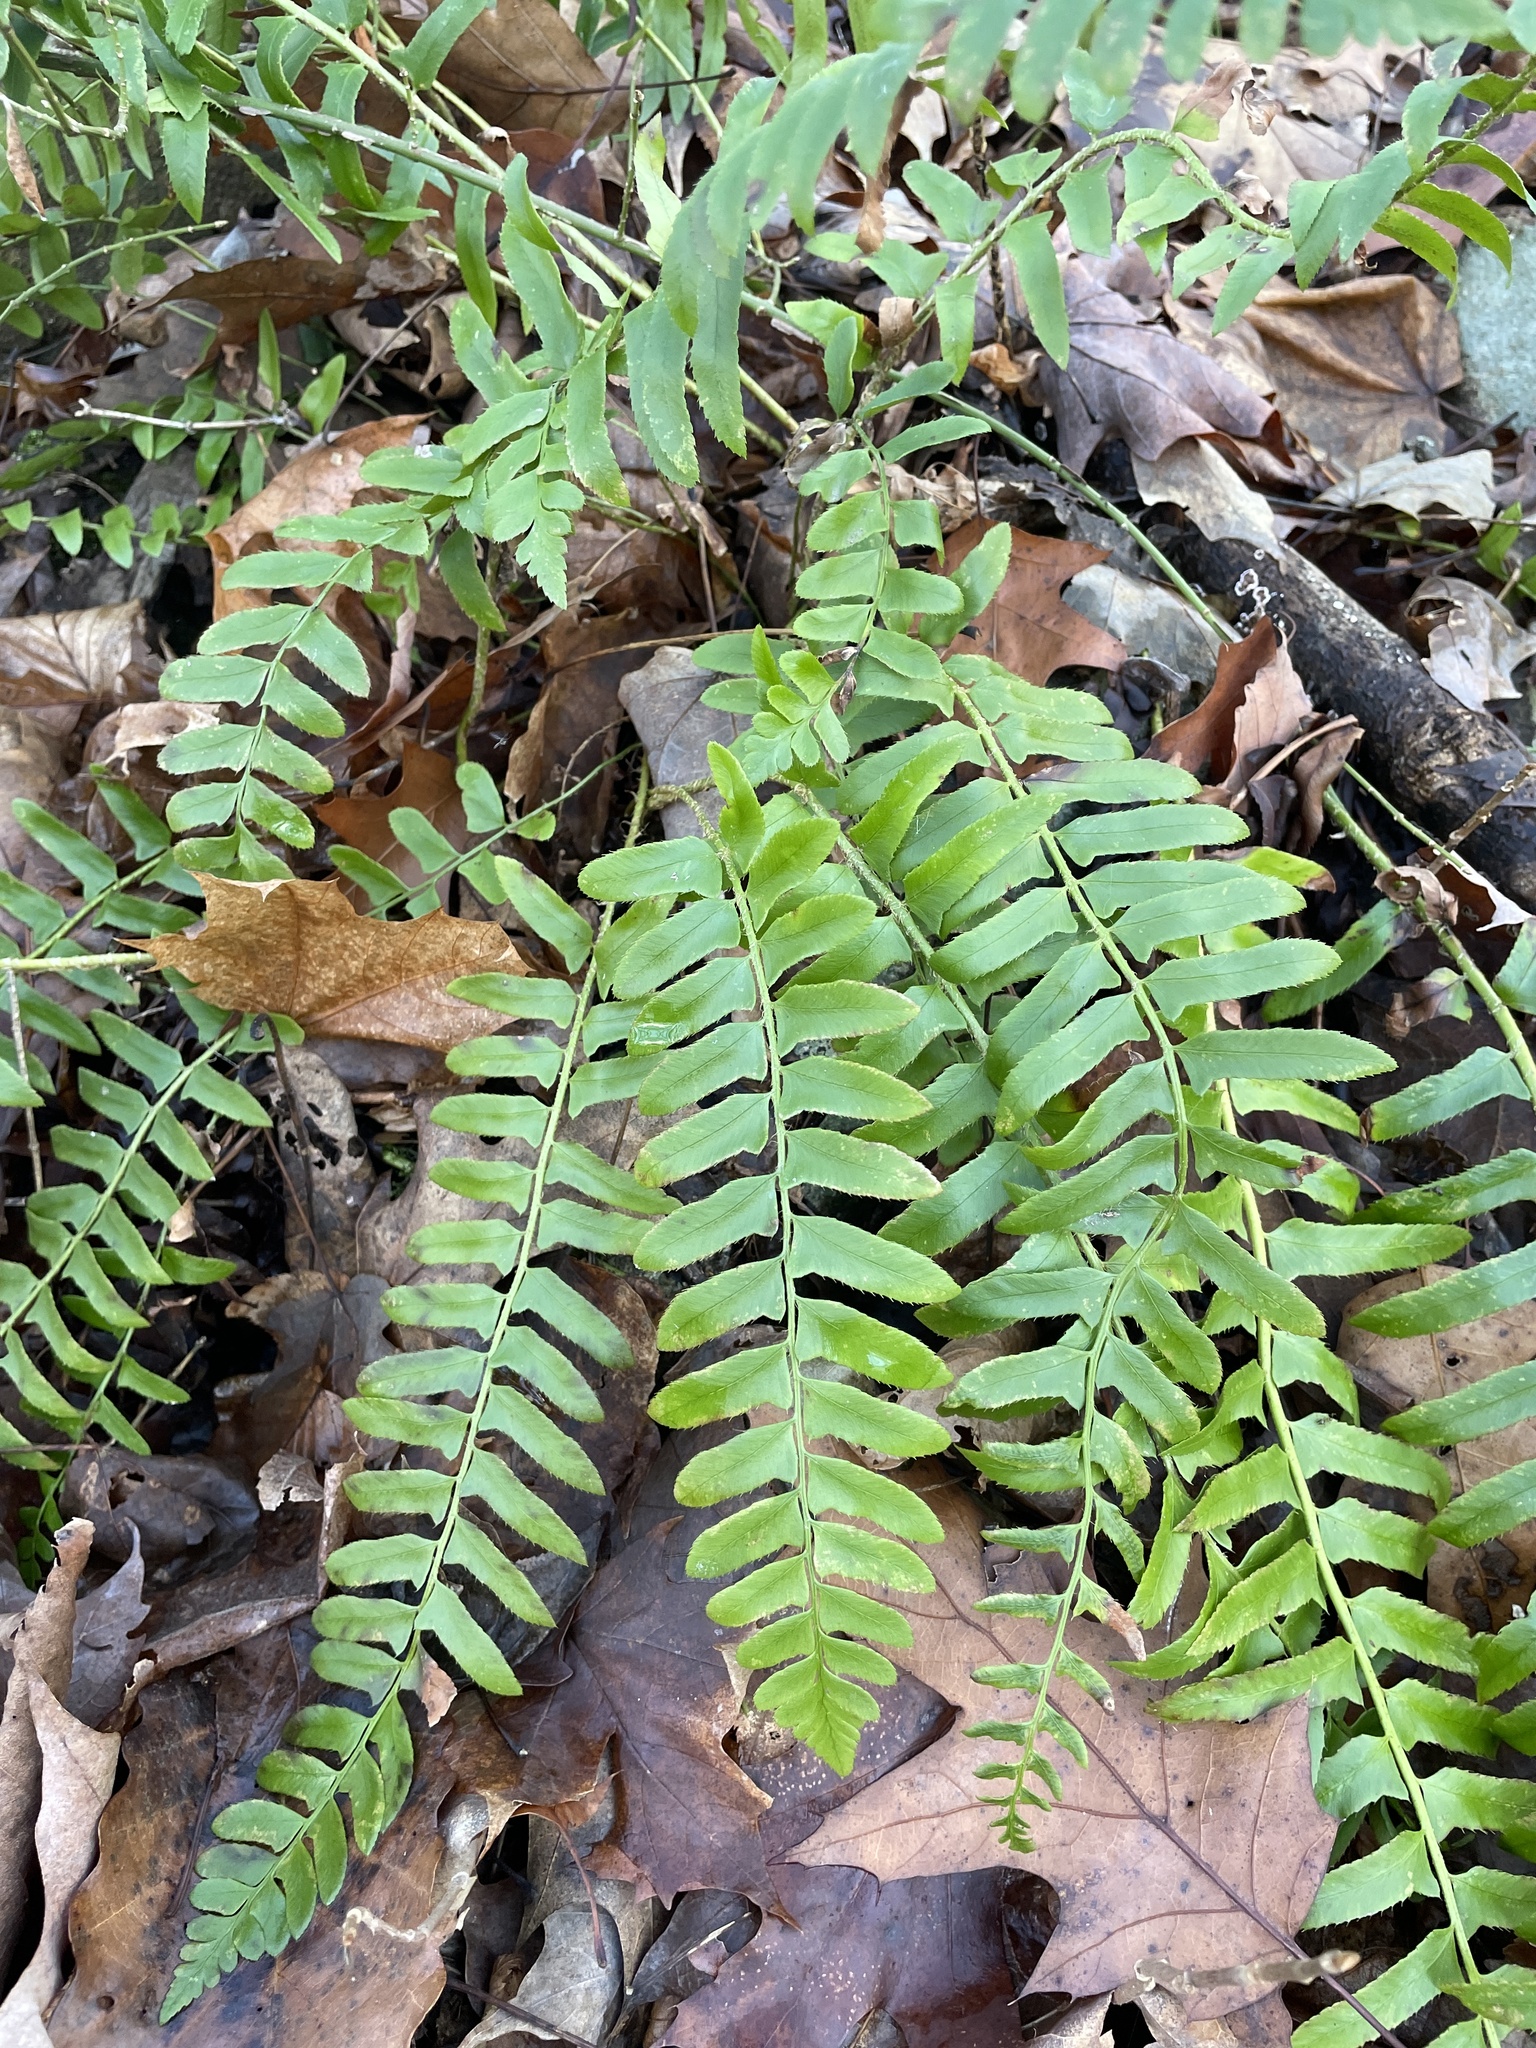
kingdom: Plantae
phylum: Tracheophyta
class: Polypodiopsida
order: Polypodiales
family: Dryopteridaceae
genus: Polystichum
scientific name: Polystichum acrostichoides
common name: Christmas fern
